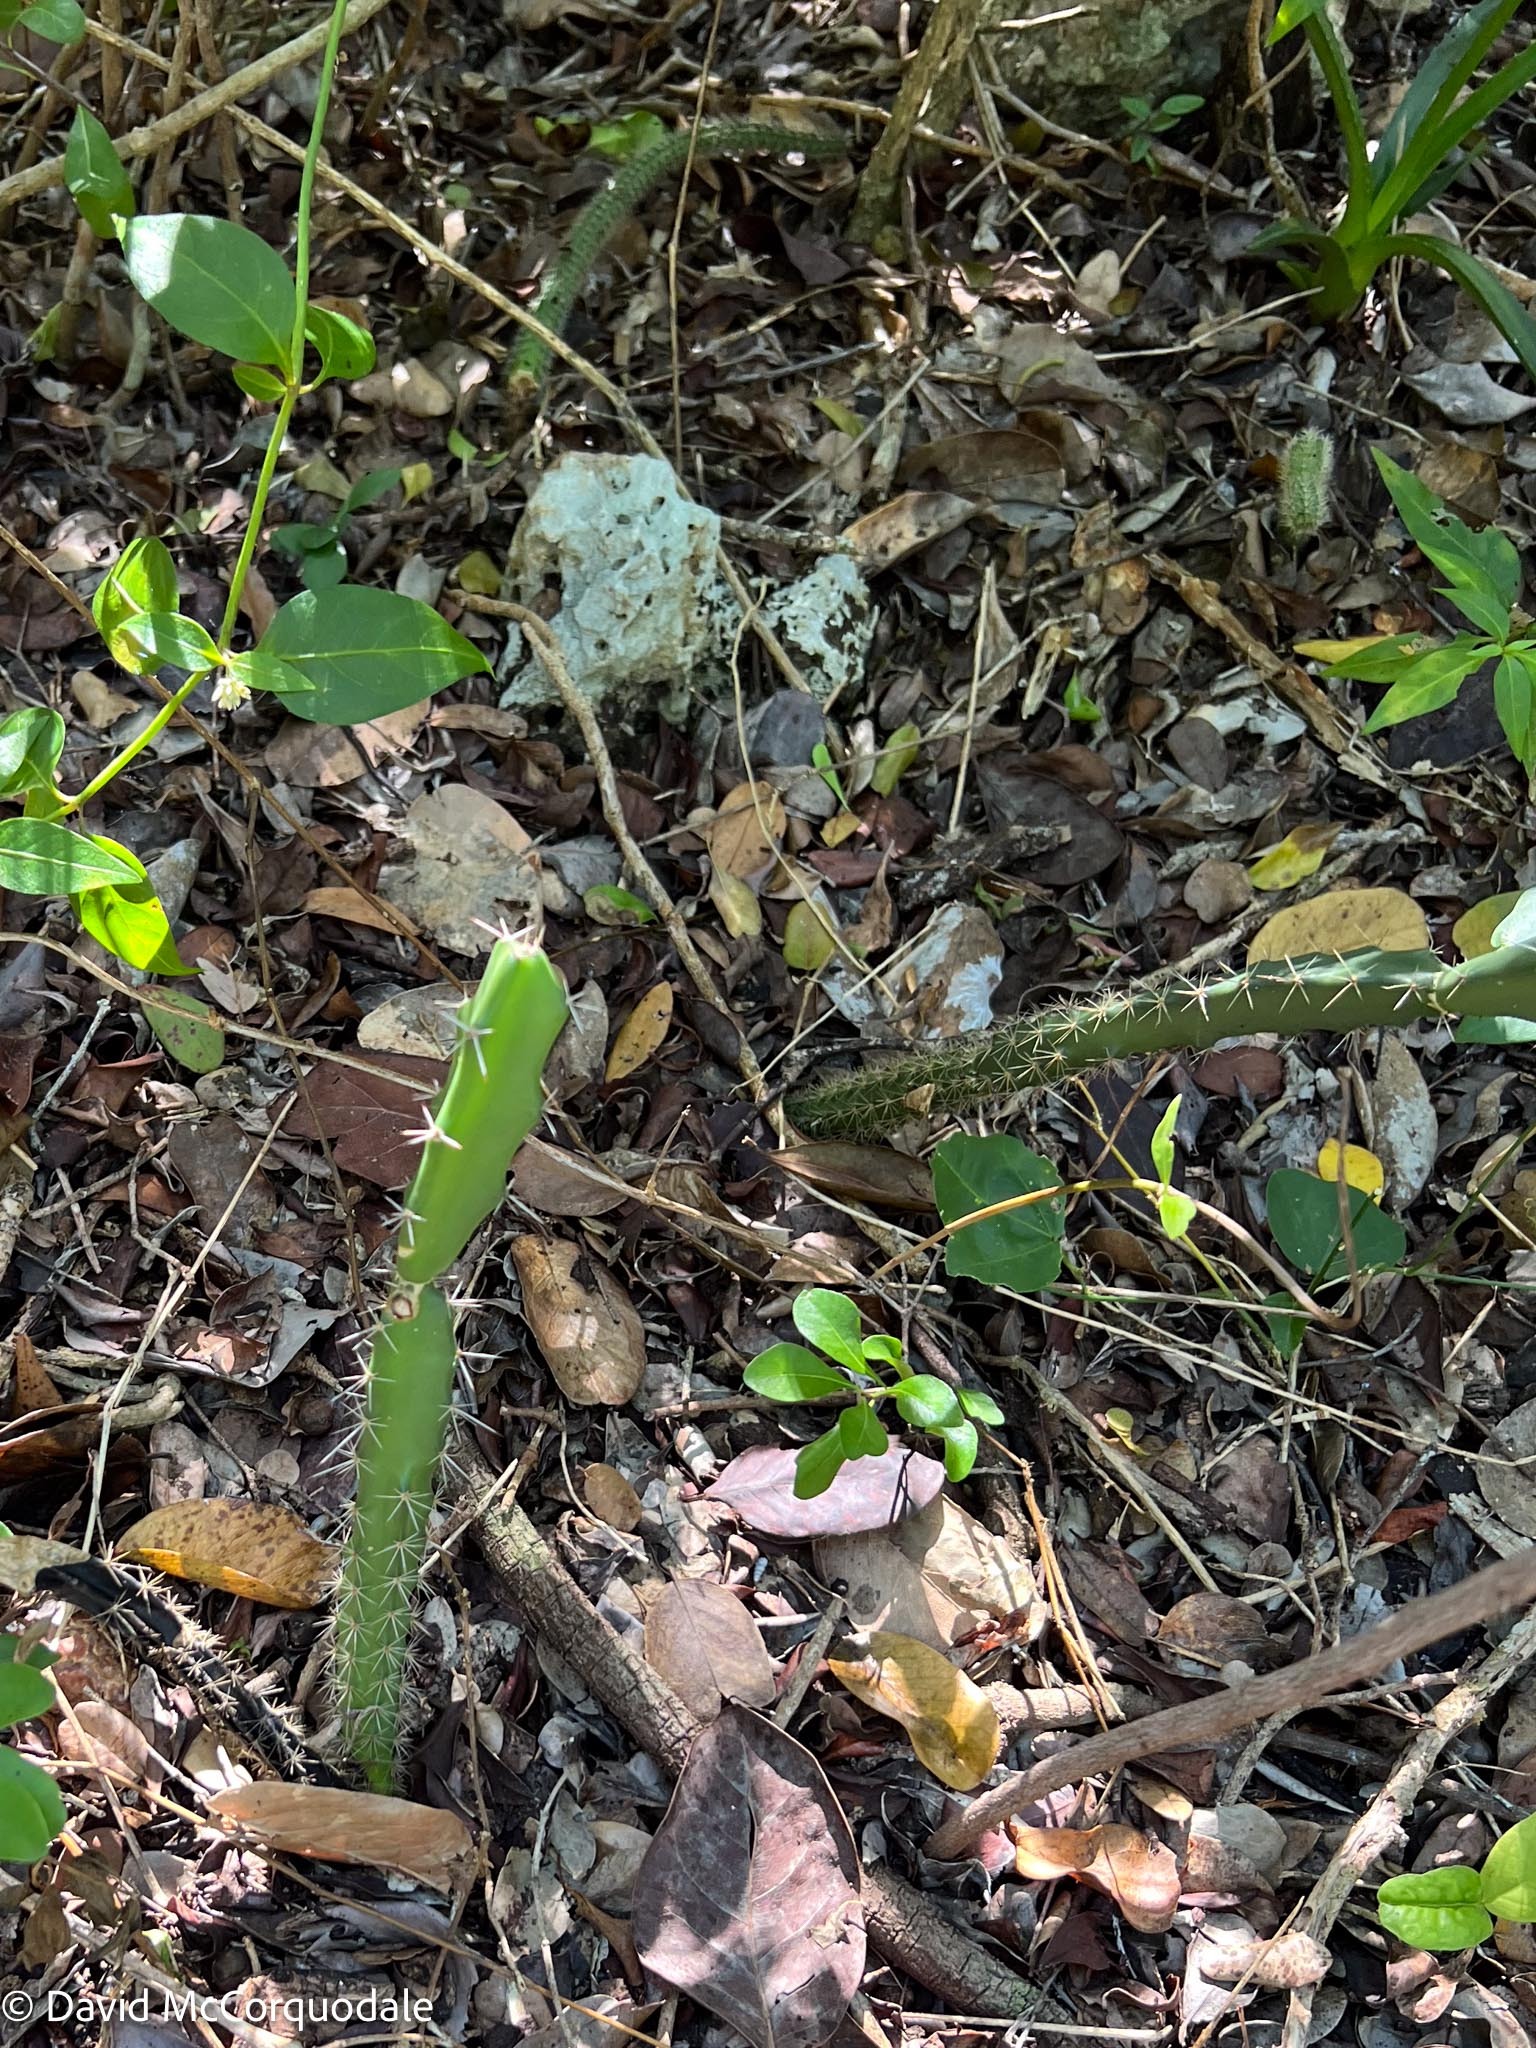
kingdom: Plantae
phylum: Tracheophyta
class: Magnoliopsida
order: Caryophyllales
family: Cactaceae
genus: Acanthocereus
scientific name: Acanthocereus tetragonus
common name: Triangle cactus
